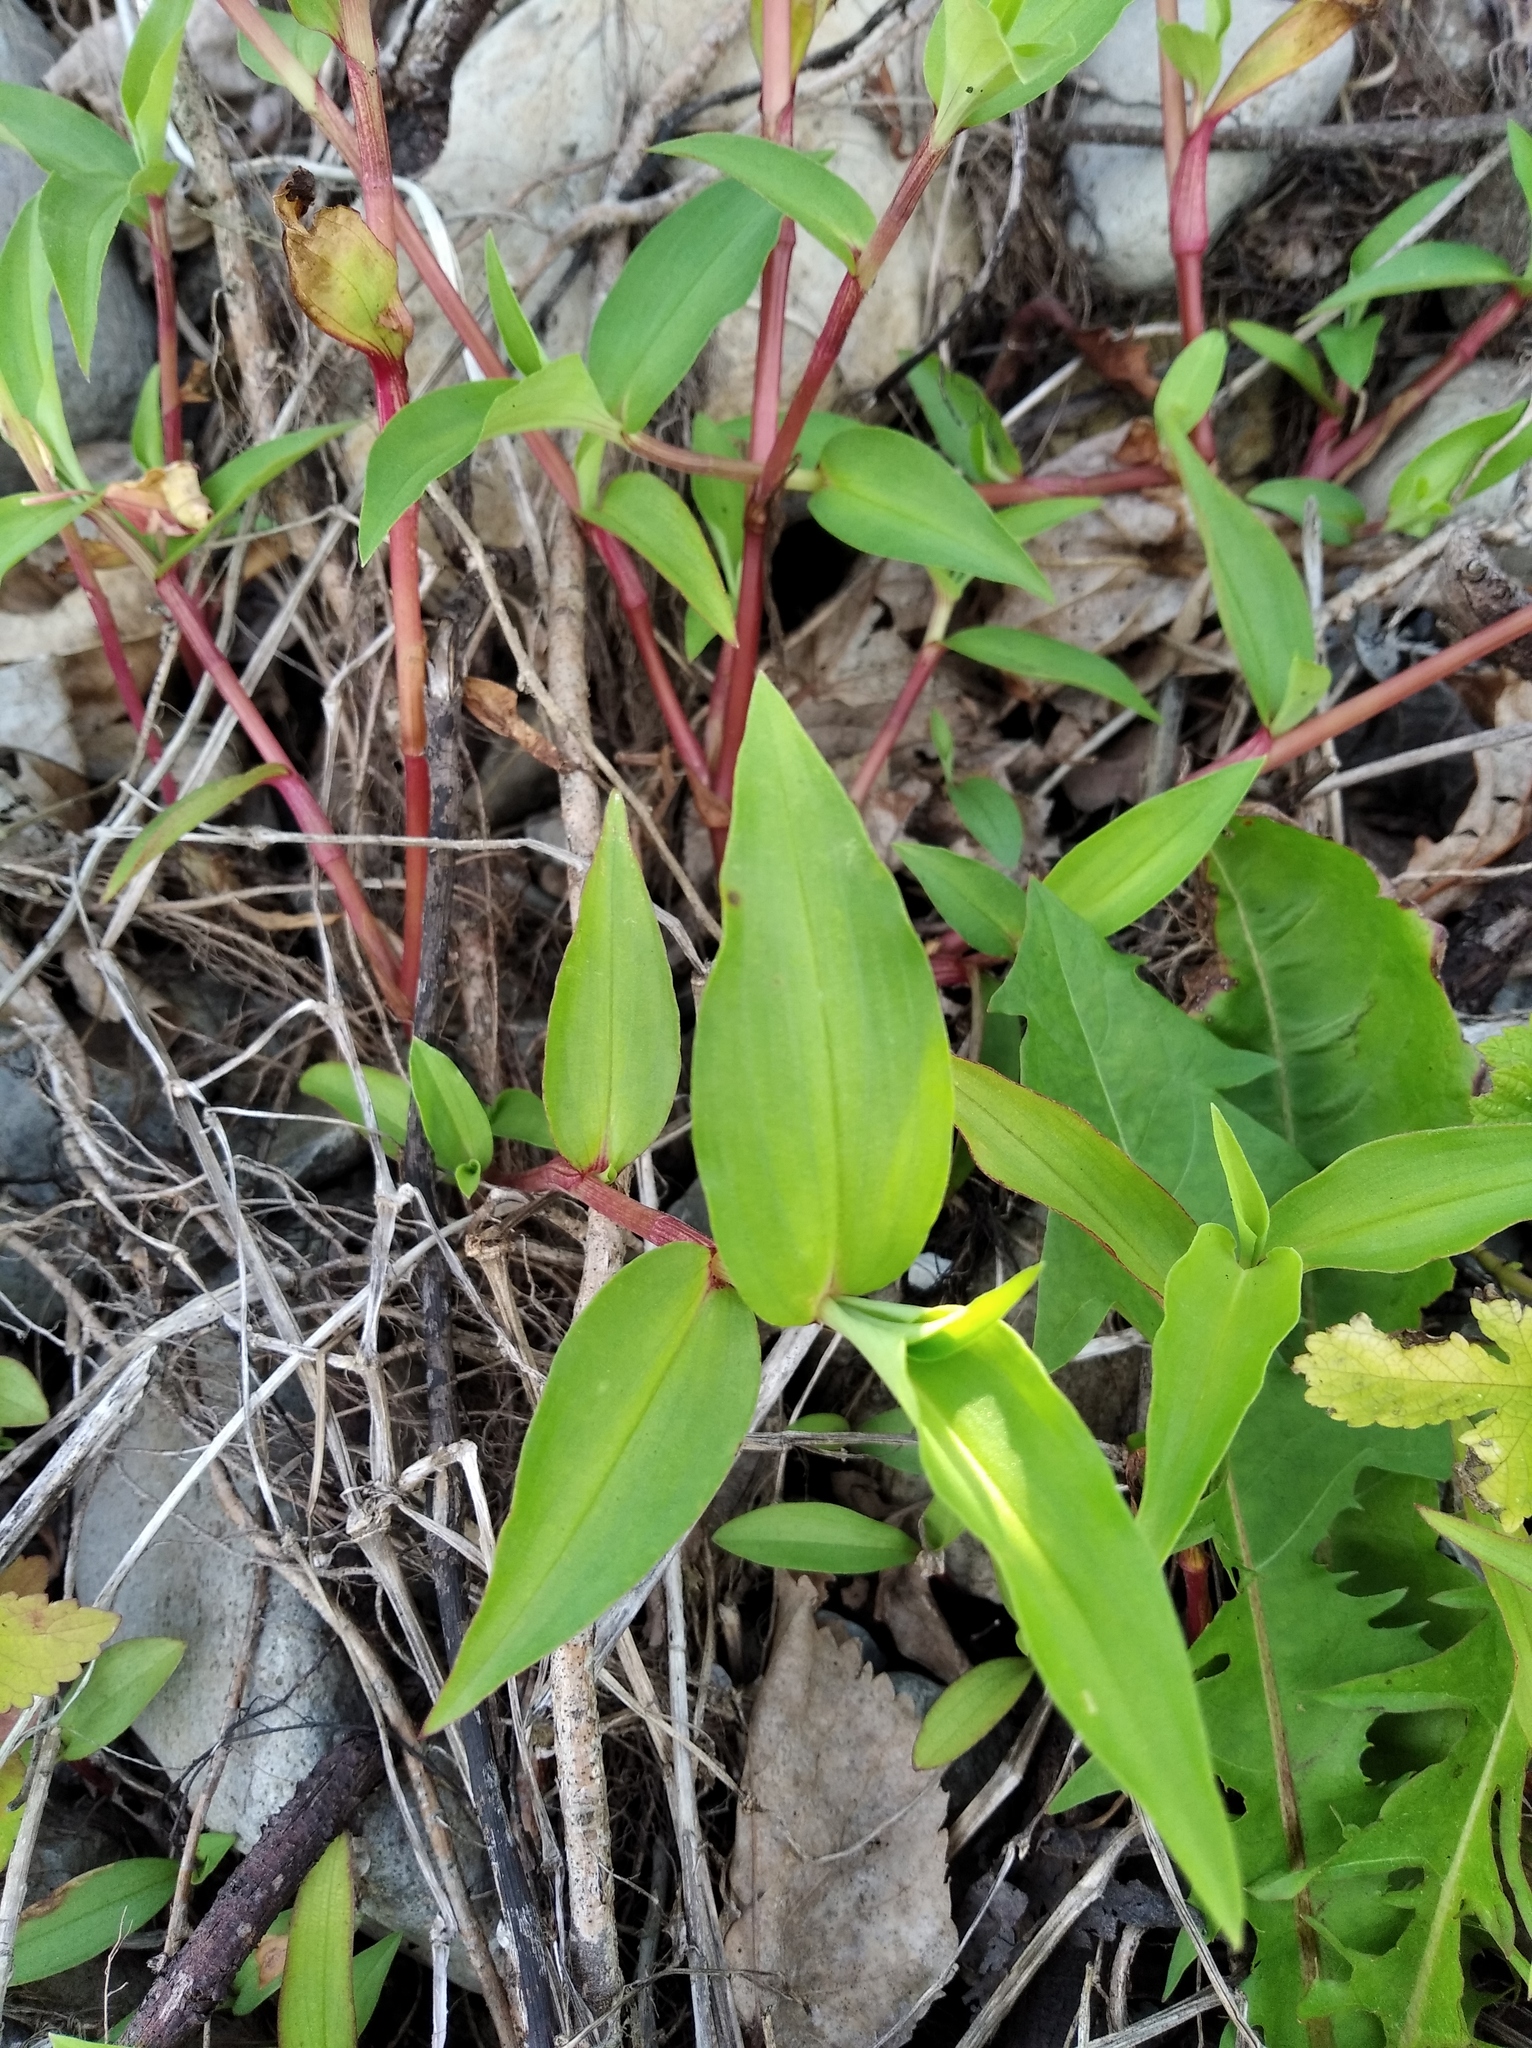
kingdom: Plantae
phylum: Tracheophyta
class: Liliopsida
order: Commelinales
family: Commelinaceae
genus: Commelina
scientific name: Commelina communis
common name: Asiatic dayflower
